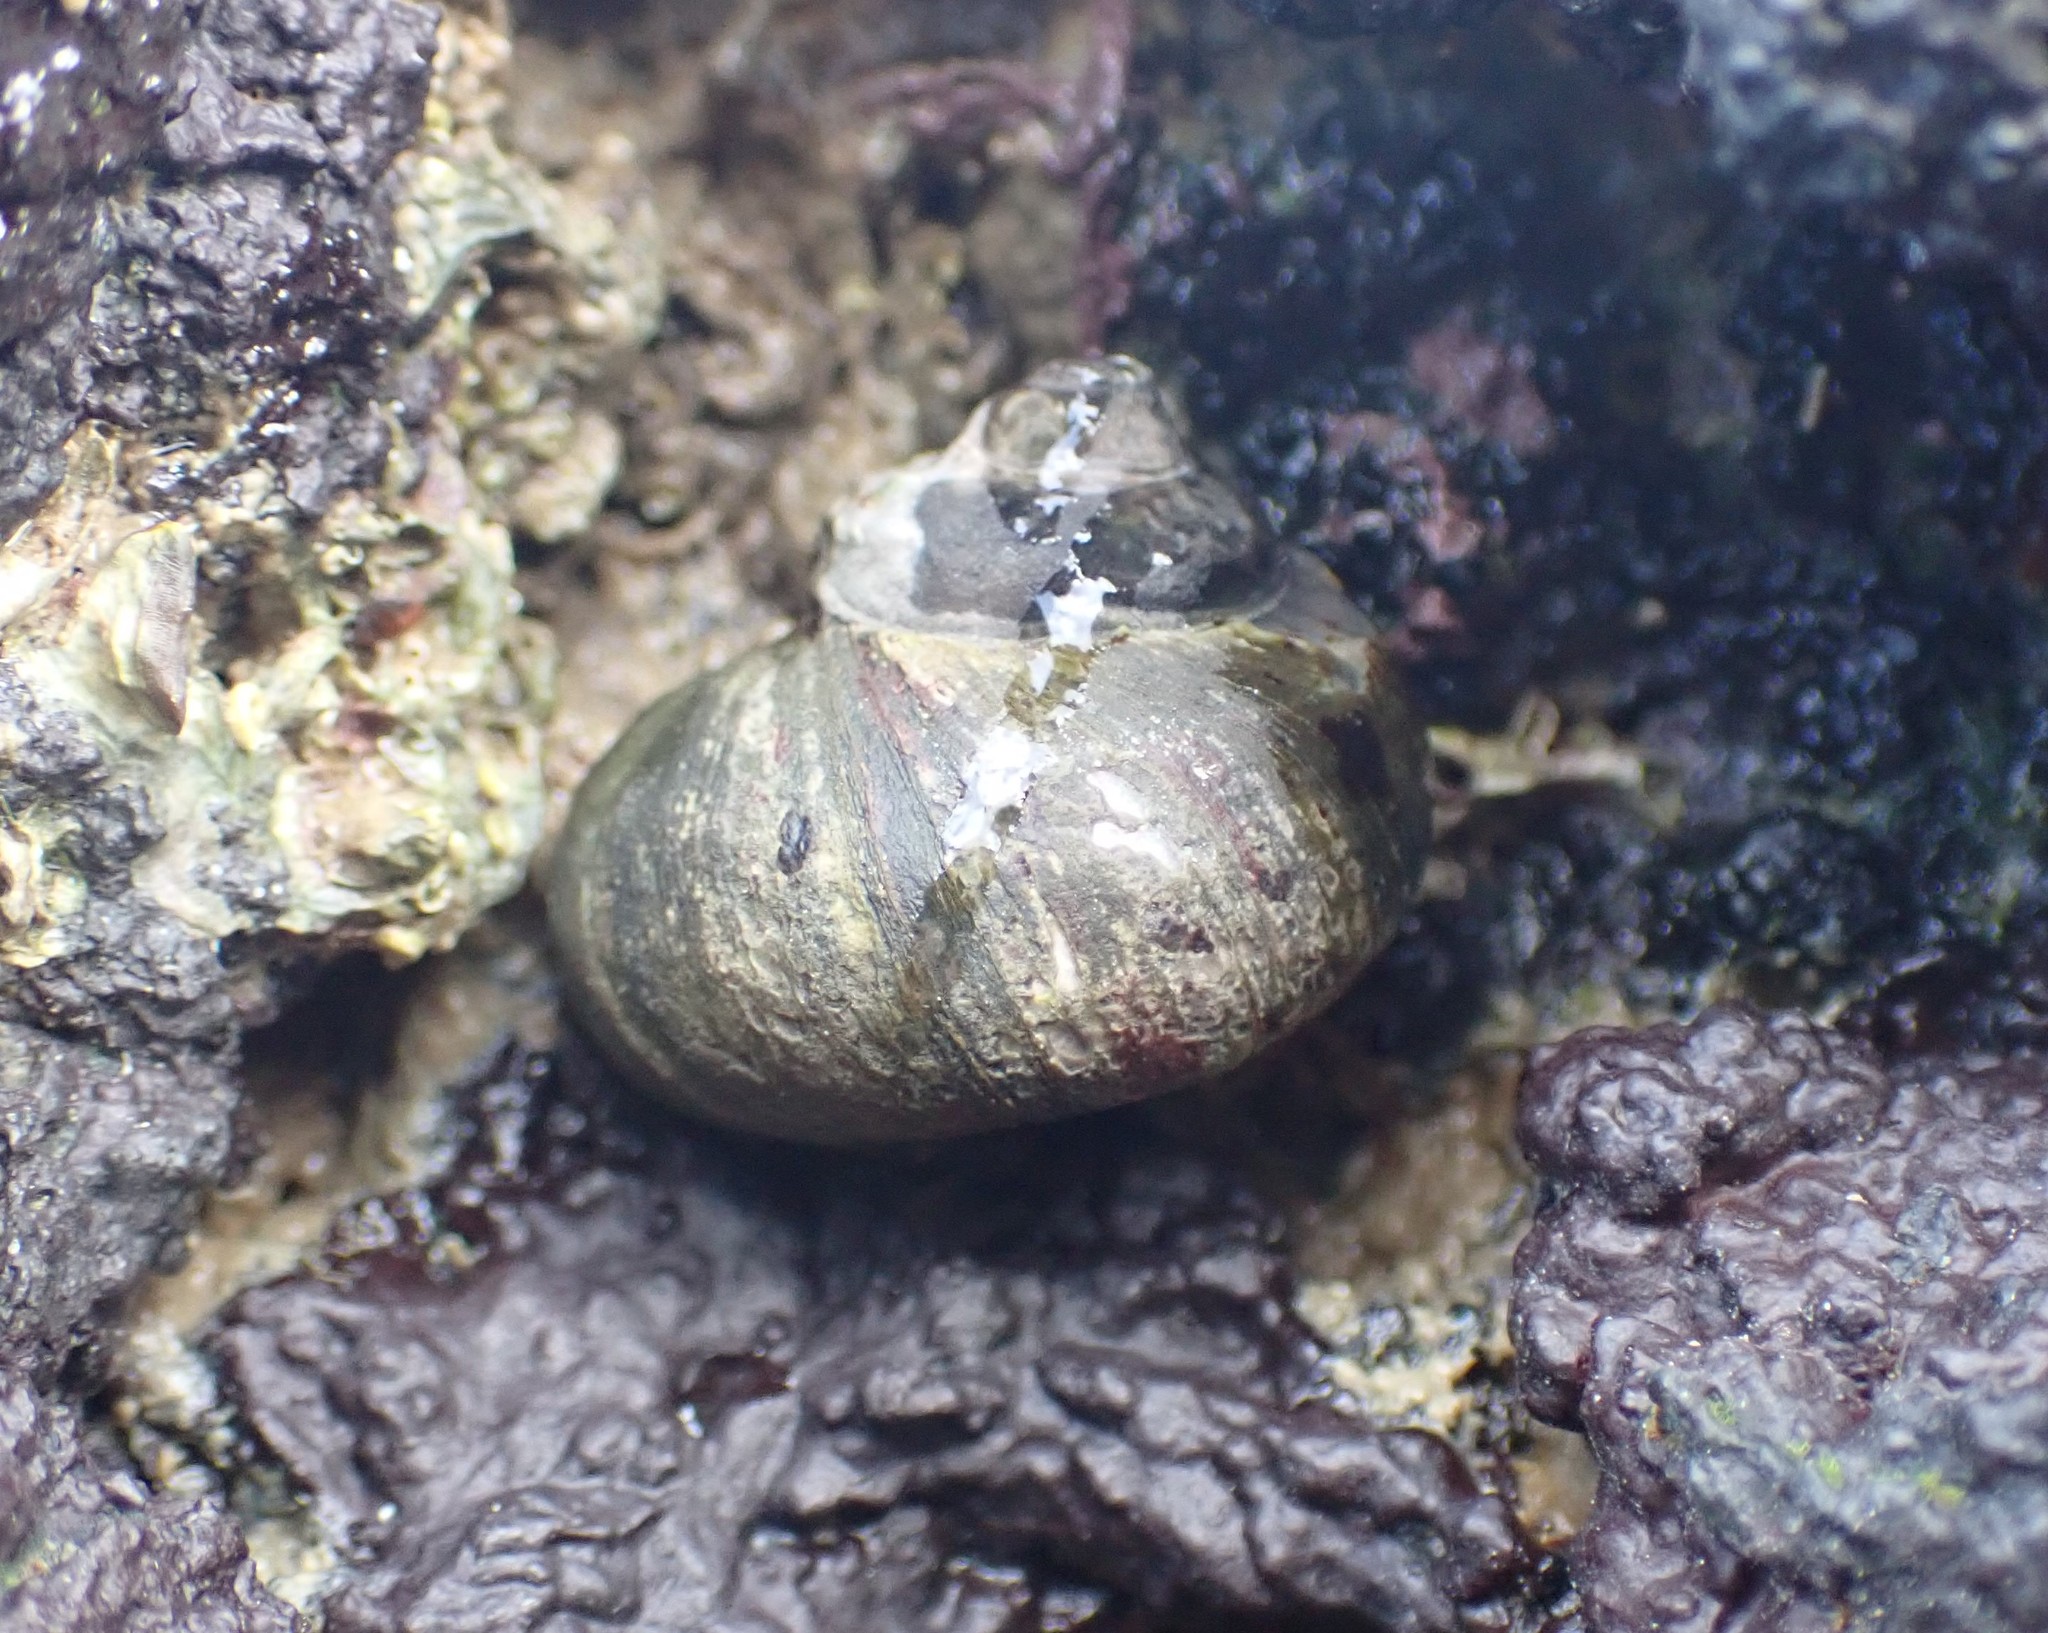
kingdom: Animalia
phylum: Mollusca
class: Gastropoda
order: Trochida
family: Turbinidae
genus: Lunella
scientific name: Lunella smaragda
